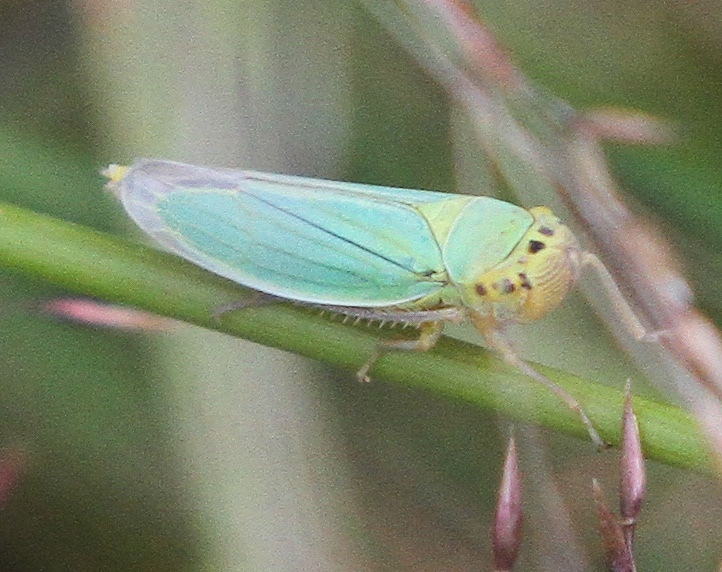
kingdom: Animalia
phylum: Arthropoda
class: Insecta
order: Hemiptera
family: Cicadellidae
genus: Cicadella
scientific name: Cicadella viridis
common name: Leafhopper
